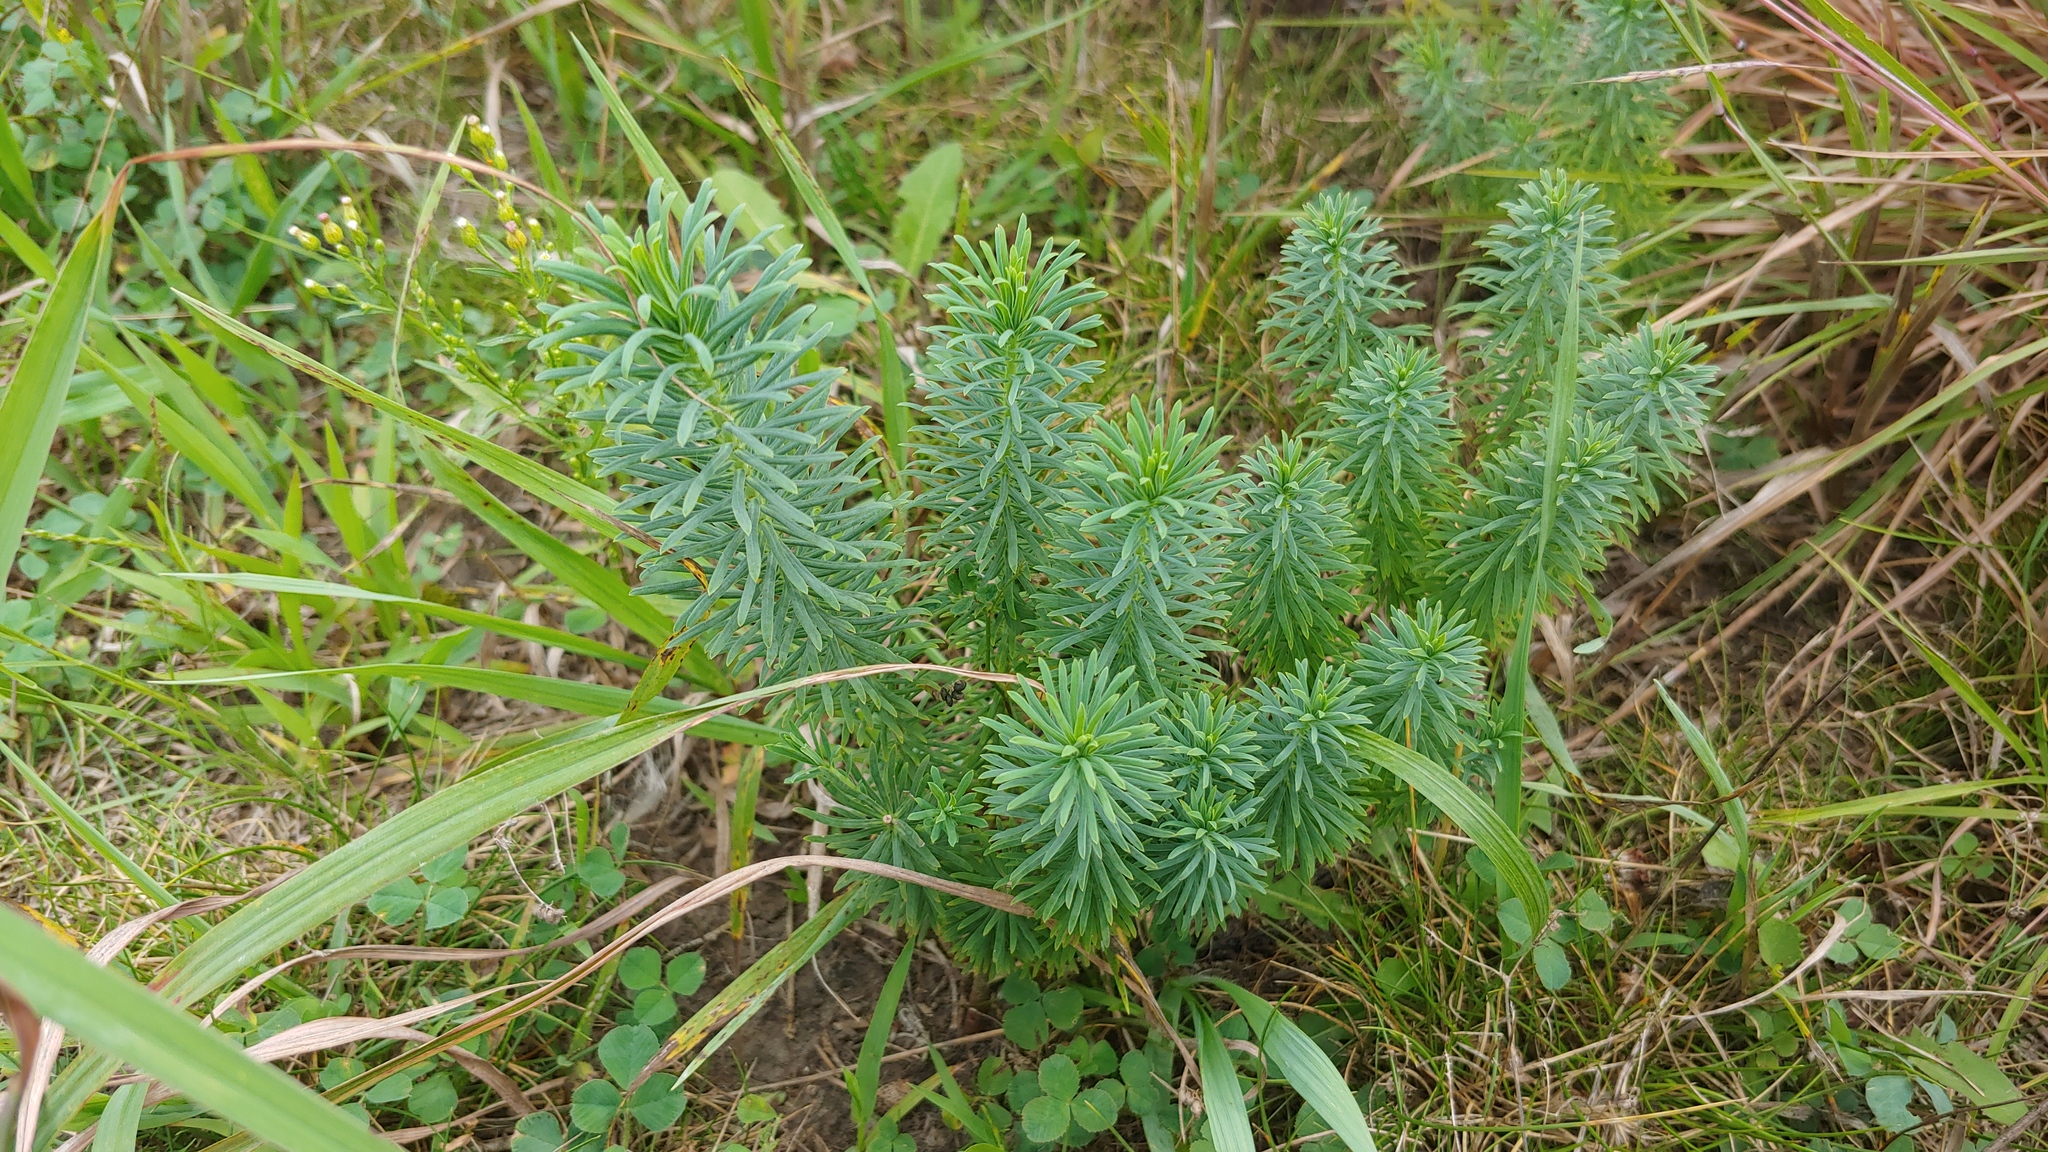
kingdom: Plantae
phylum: Tracheophyta
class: Magnoliopsida
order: Malpighiales
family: Euphorbiaceae
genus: Euphorbia
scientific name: Euphorbia cyparissias
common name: Cypress spurge
